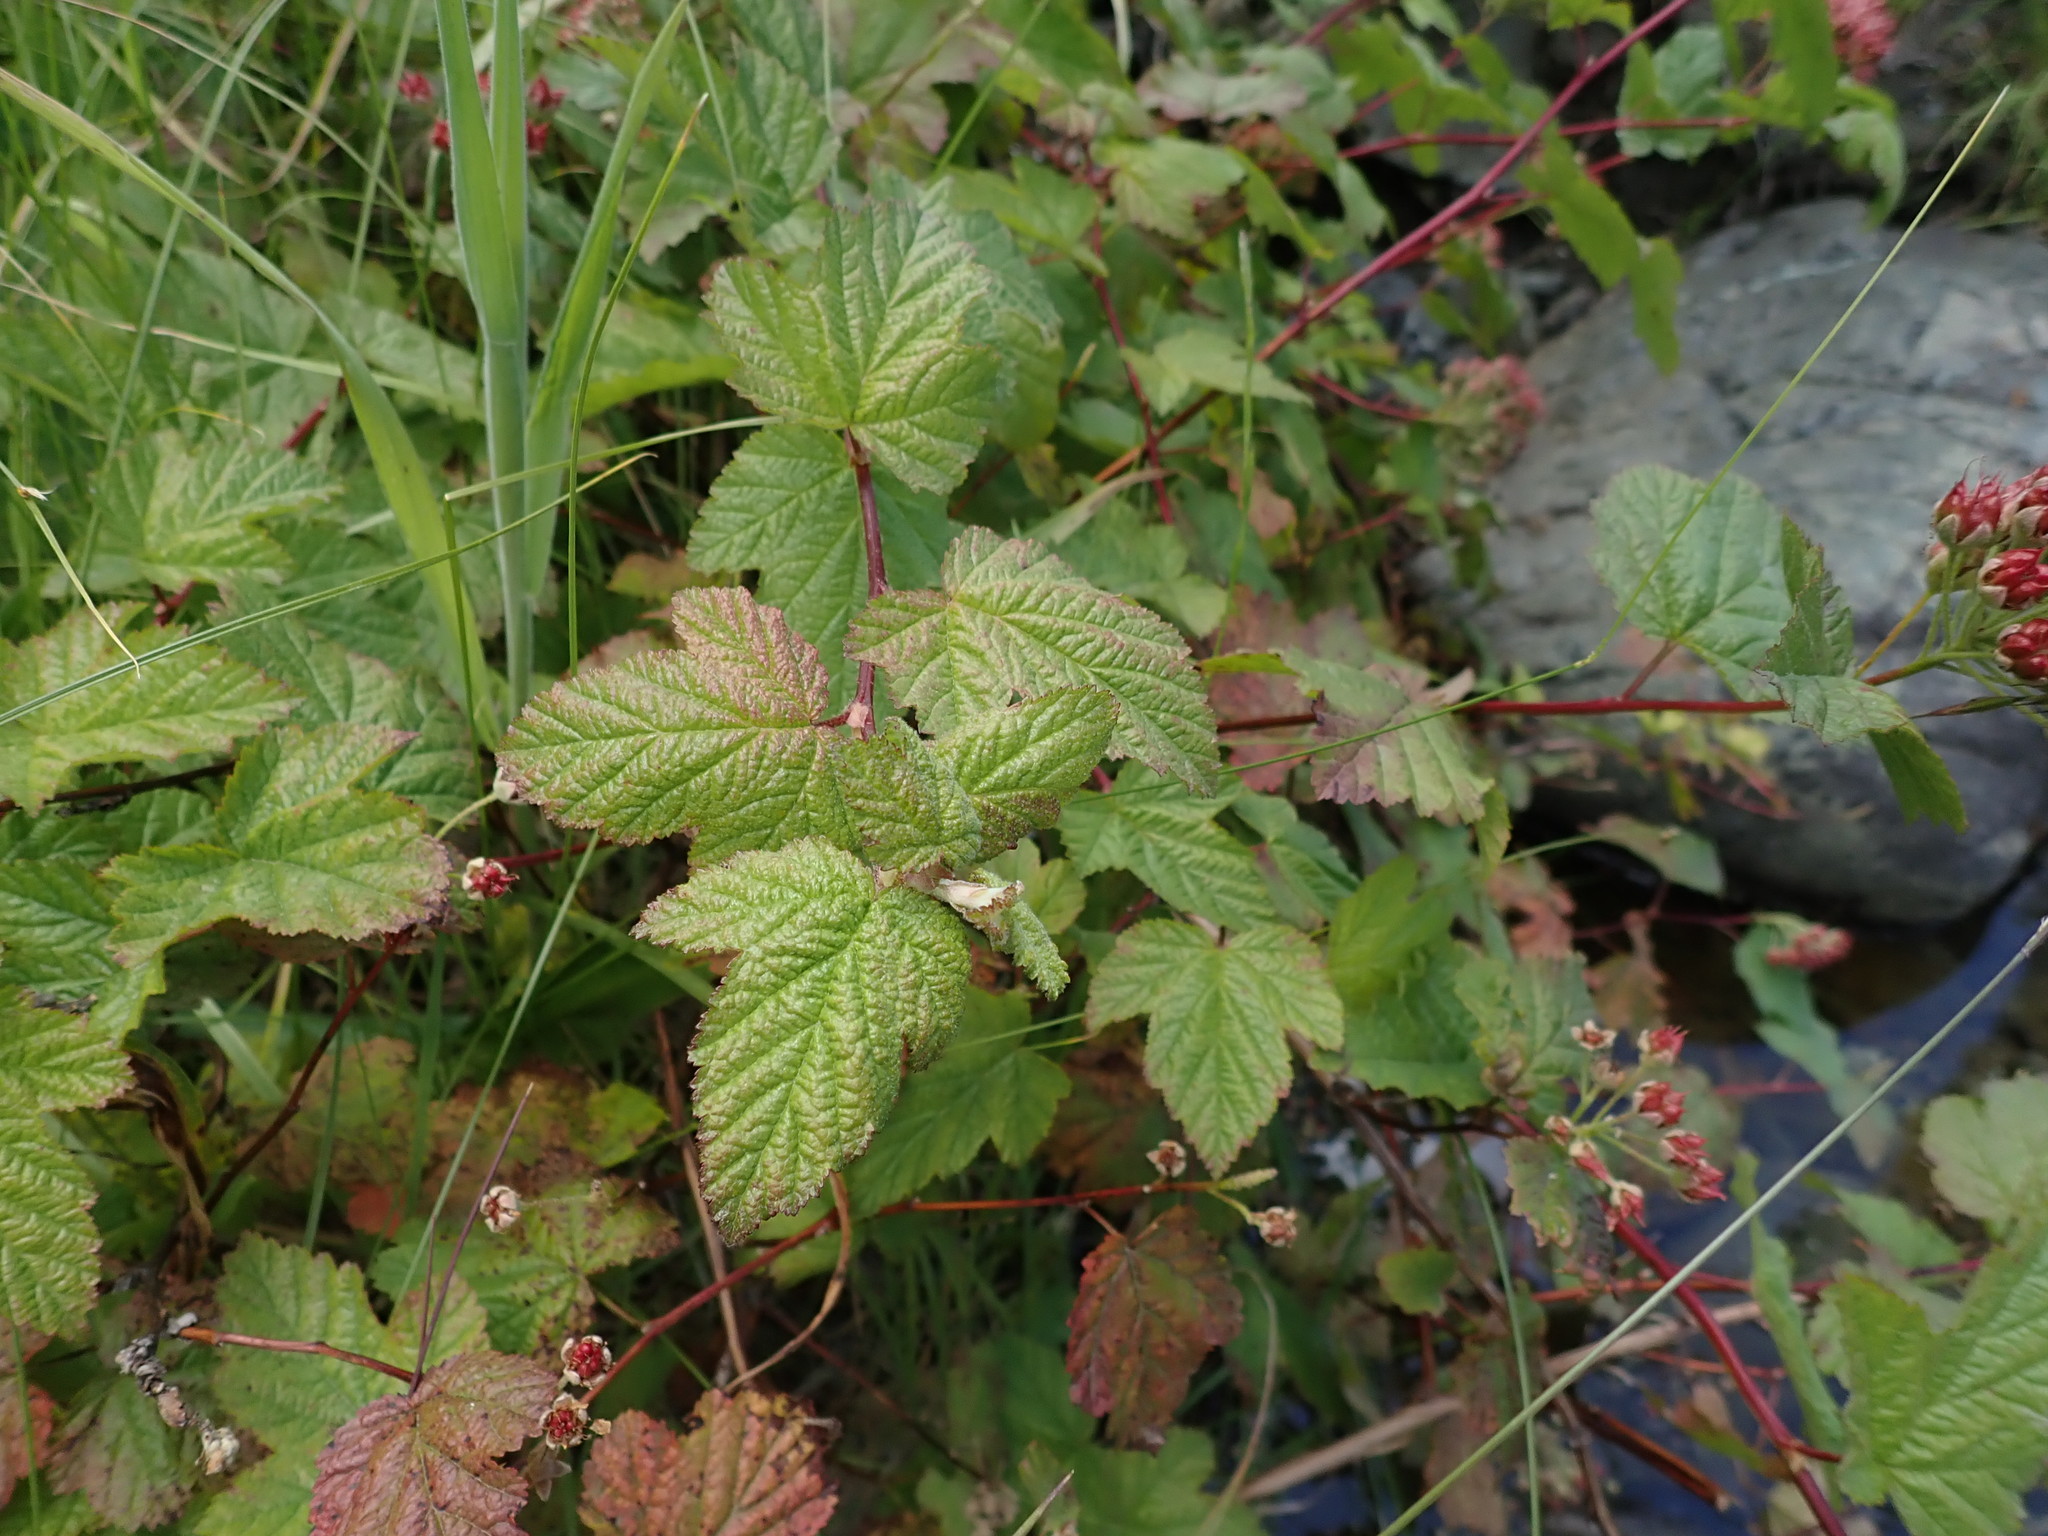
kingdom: Plantae
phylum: Tracheophyta
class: Magnoliopsida
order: Rosales
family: Rosaceae
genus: Physocarpus
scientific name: Physocarpus capitatus
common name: Pacific ninebark
